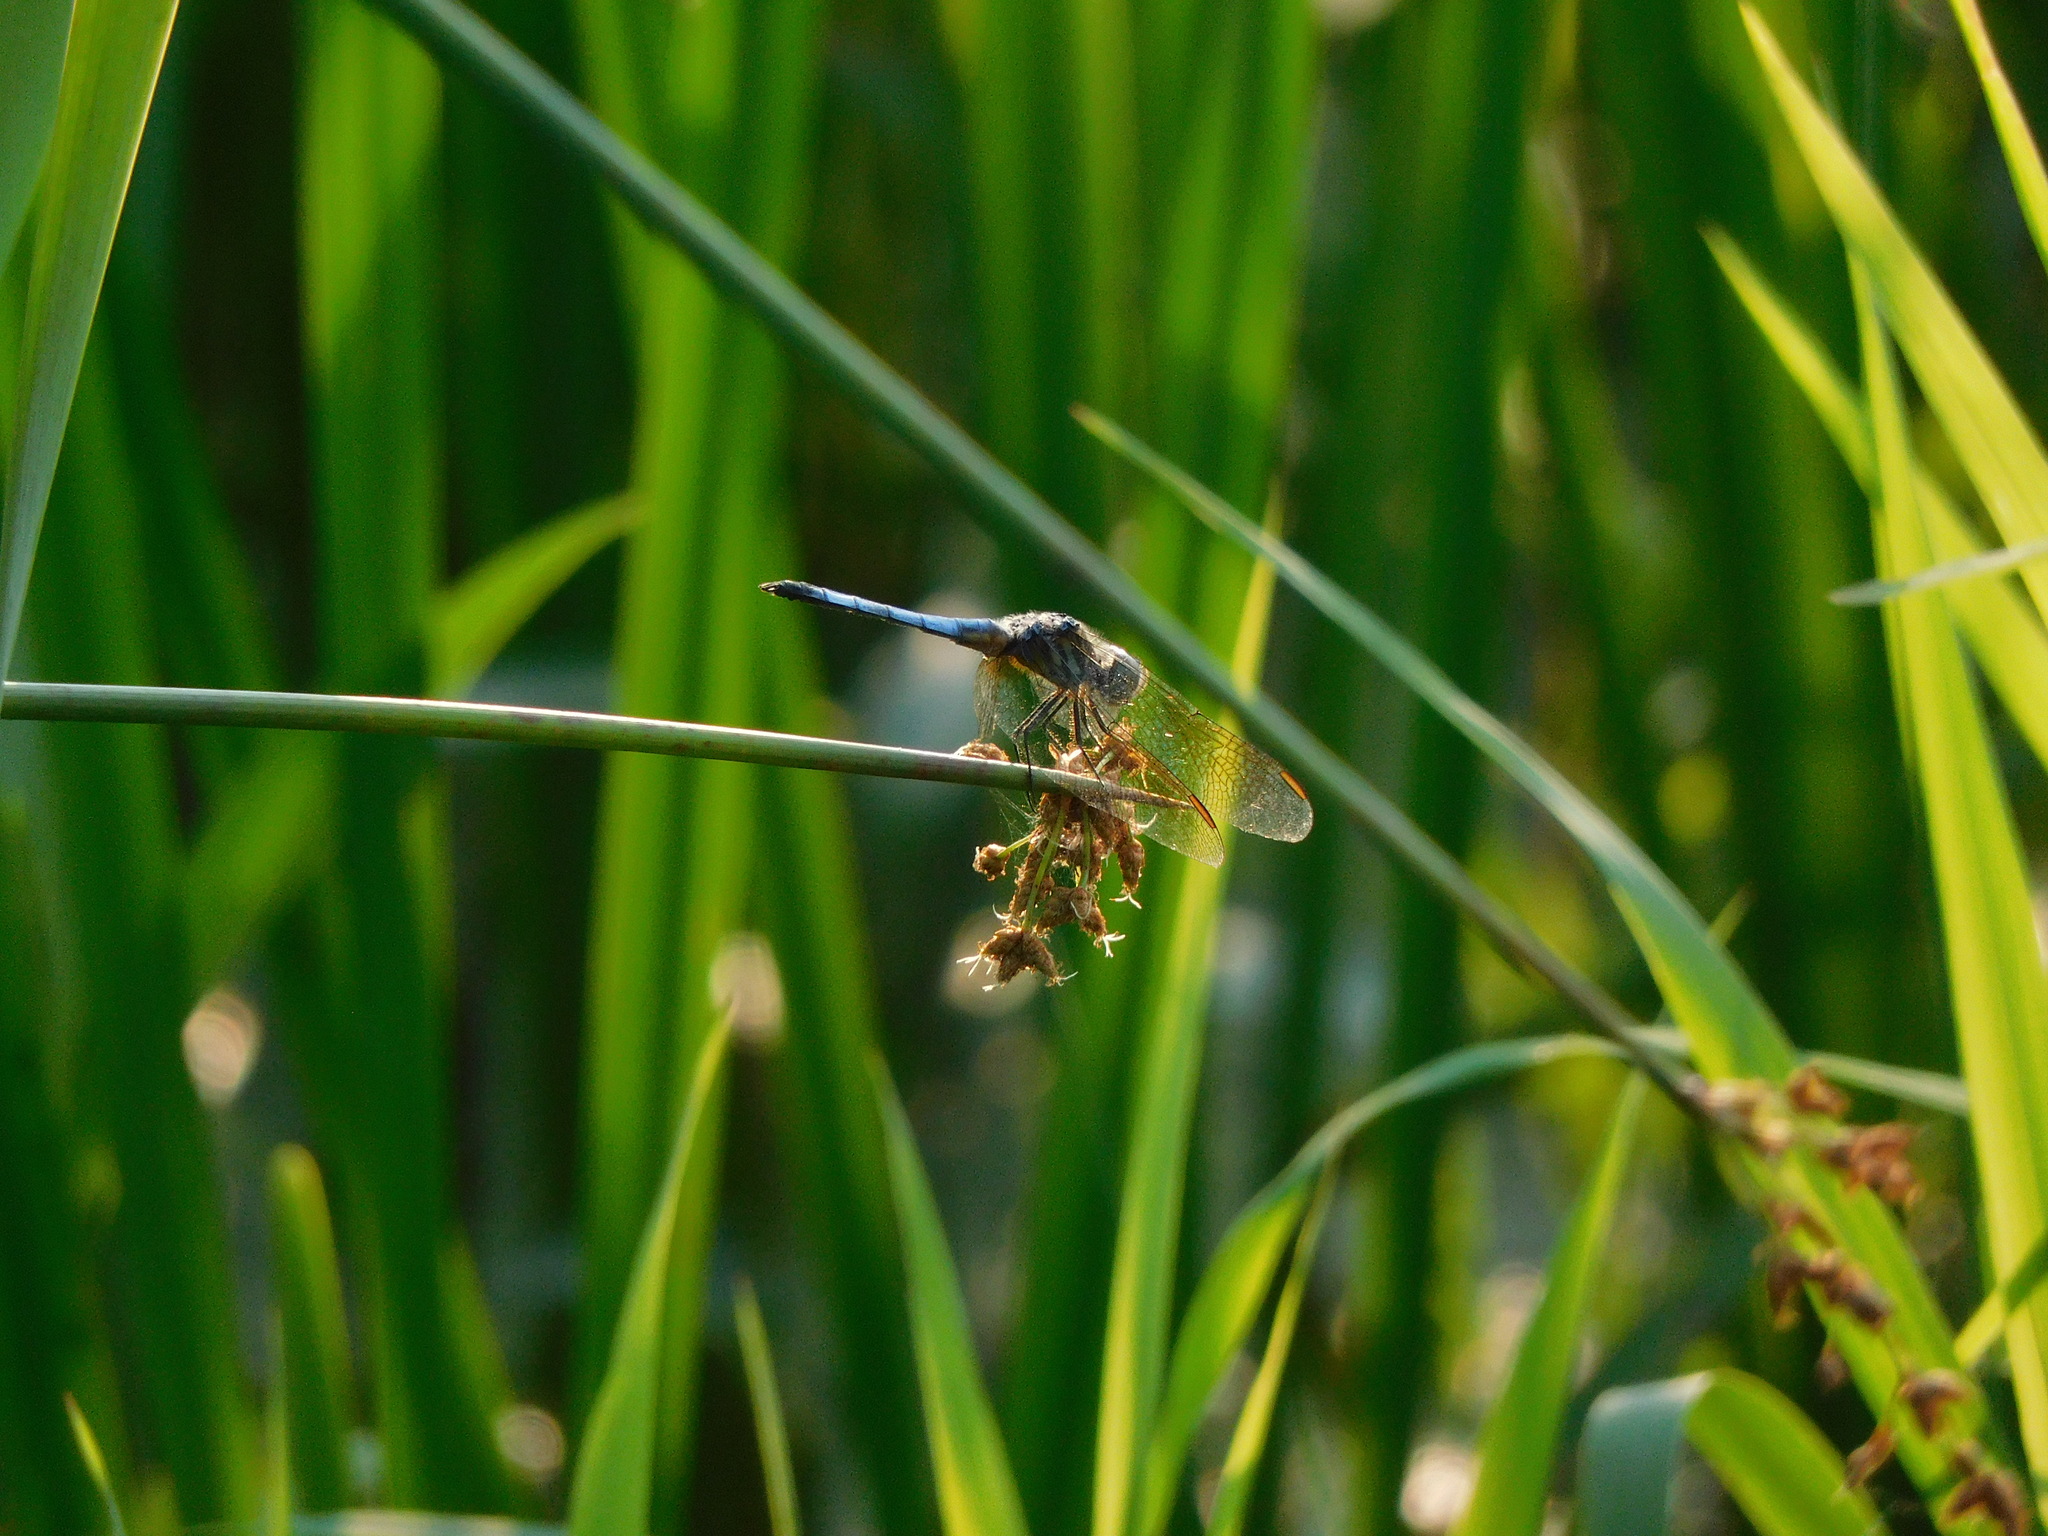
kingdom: Animalia
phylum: Arthropoda
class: Insecta
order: Odonata
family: Libellulidae
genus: Pachydiplax
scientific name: Pachydiplax longipennis
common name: Blue dasher
